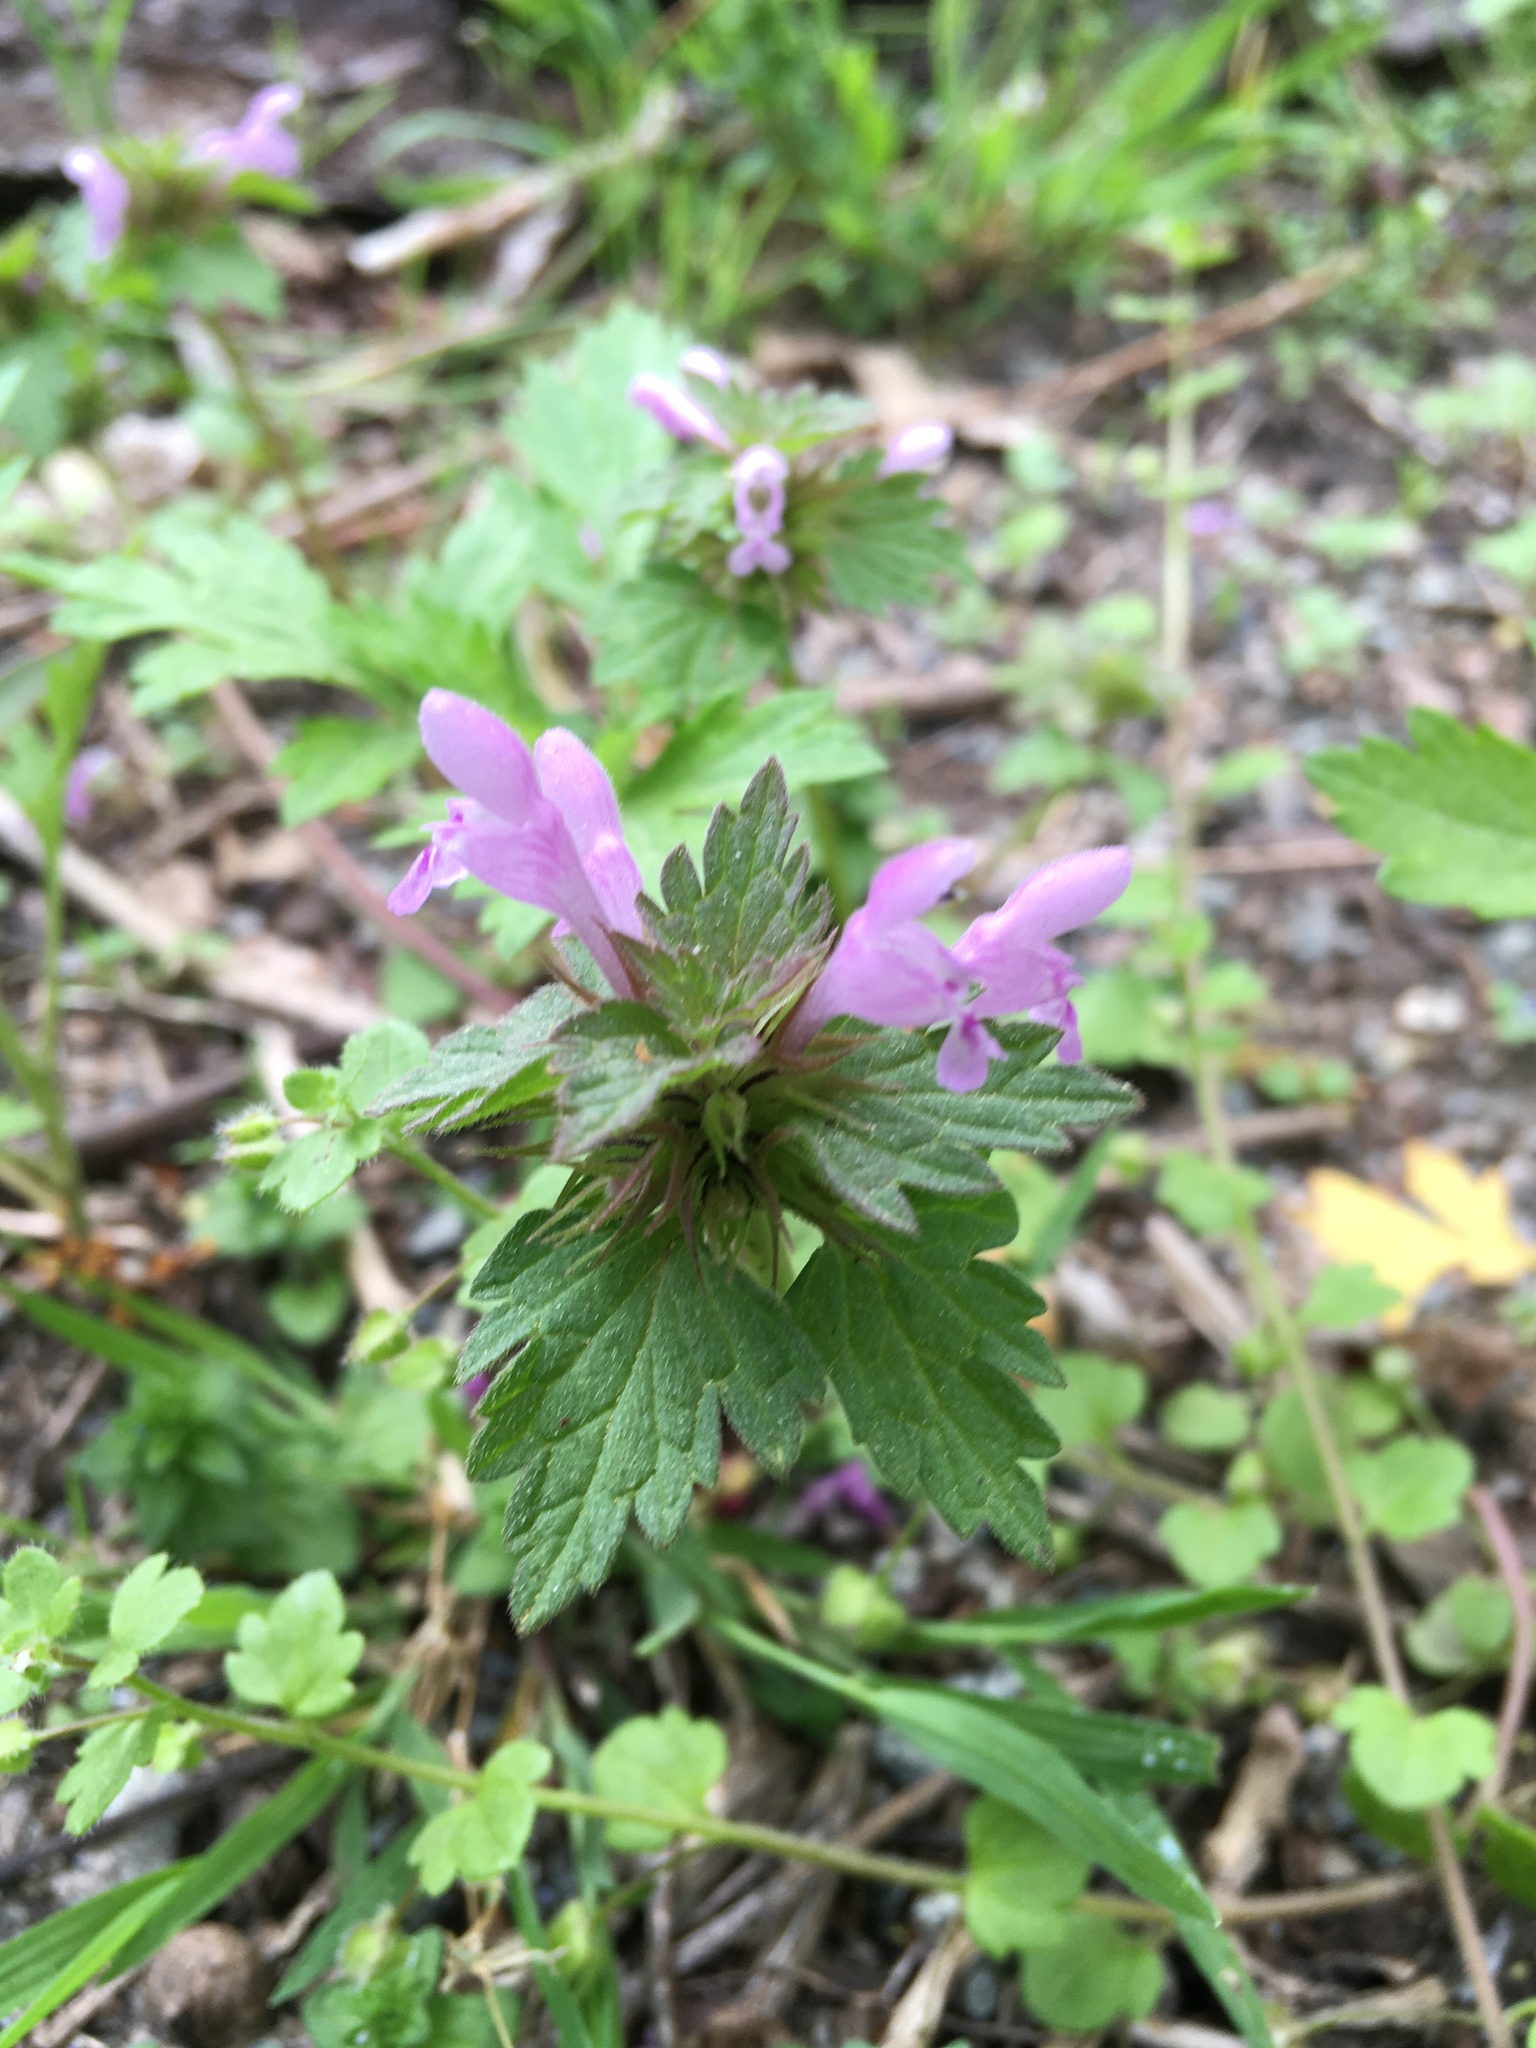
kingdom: Plantae
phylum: Tracheophyta
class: Magnoliopsida
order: Lamiales
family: Lamiaceae
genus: Lamium
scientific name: Lamium hybridum
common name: Cut-leaved dead-nettle
